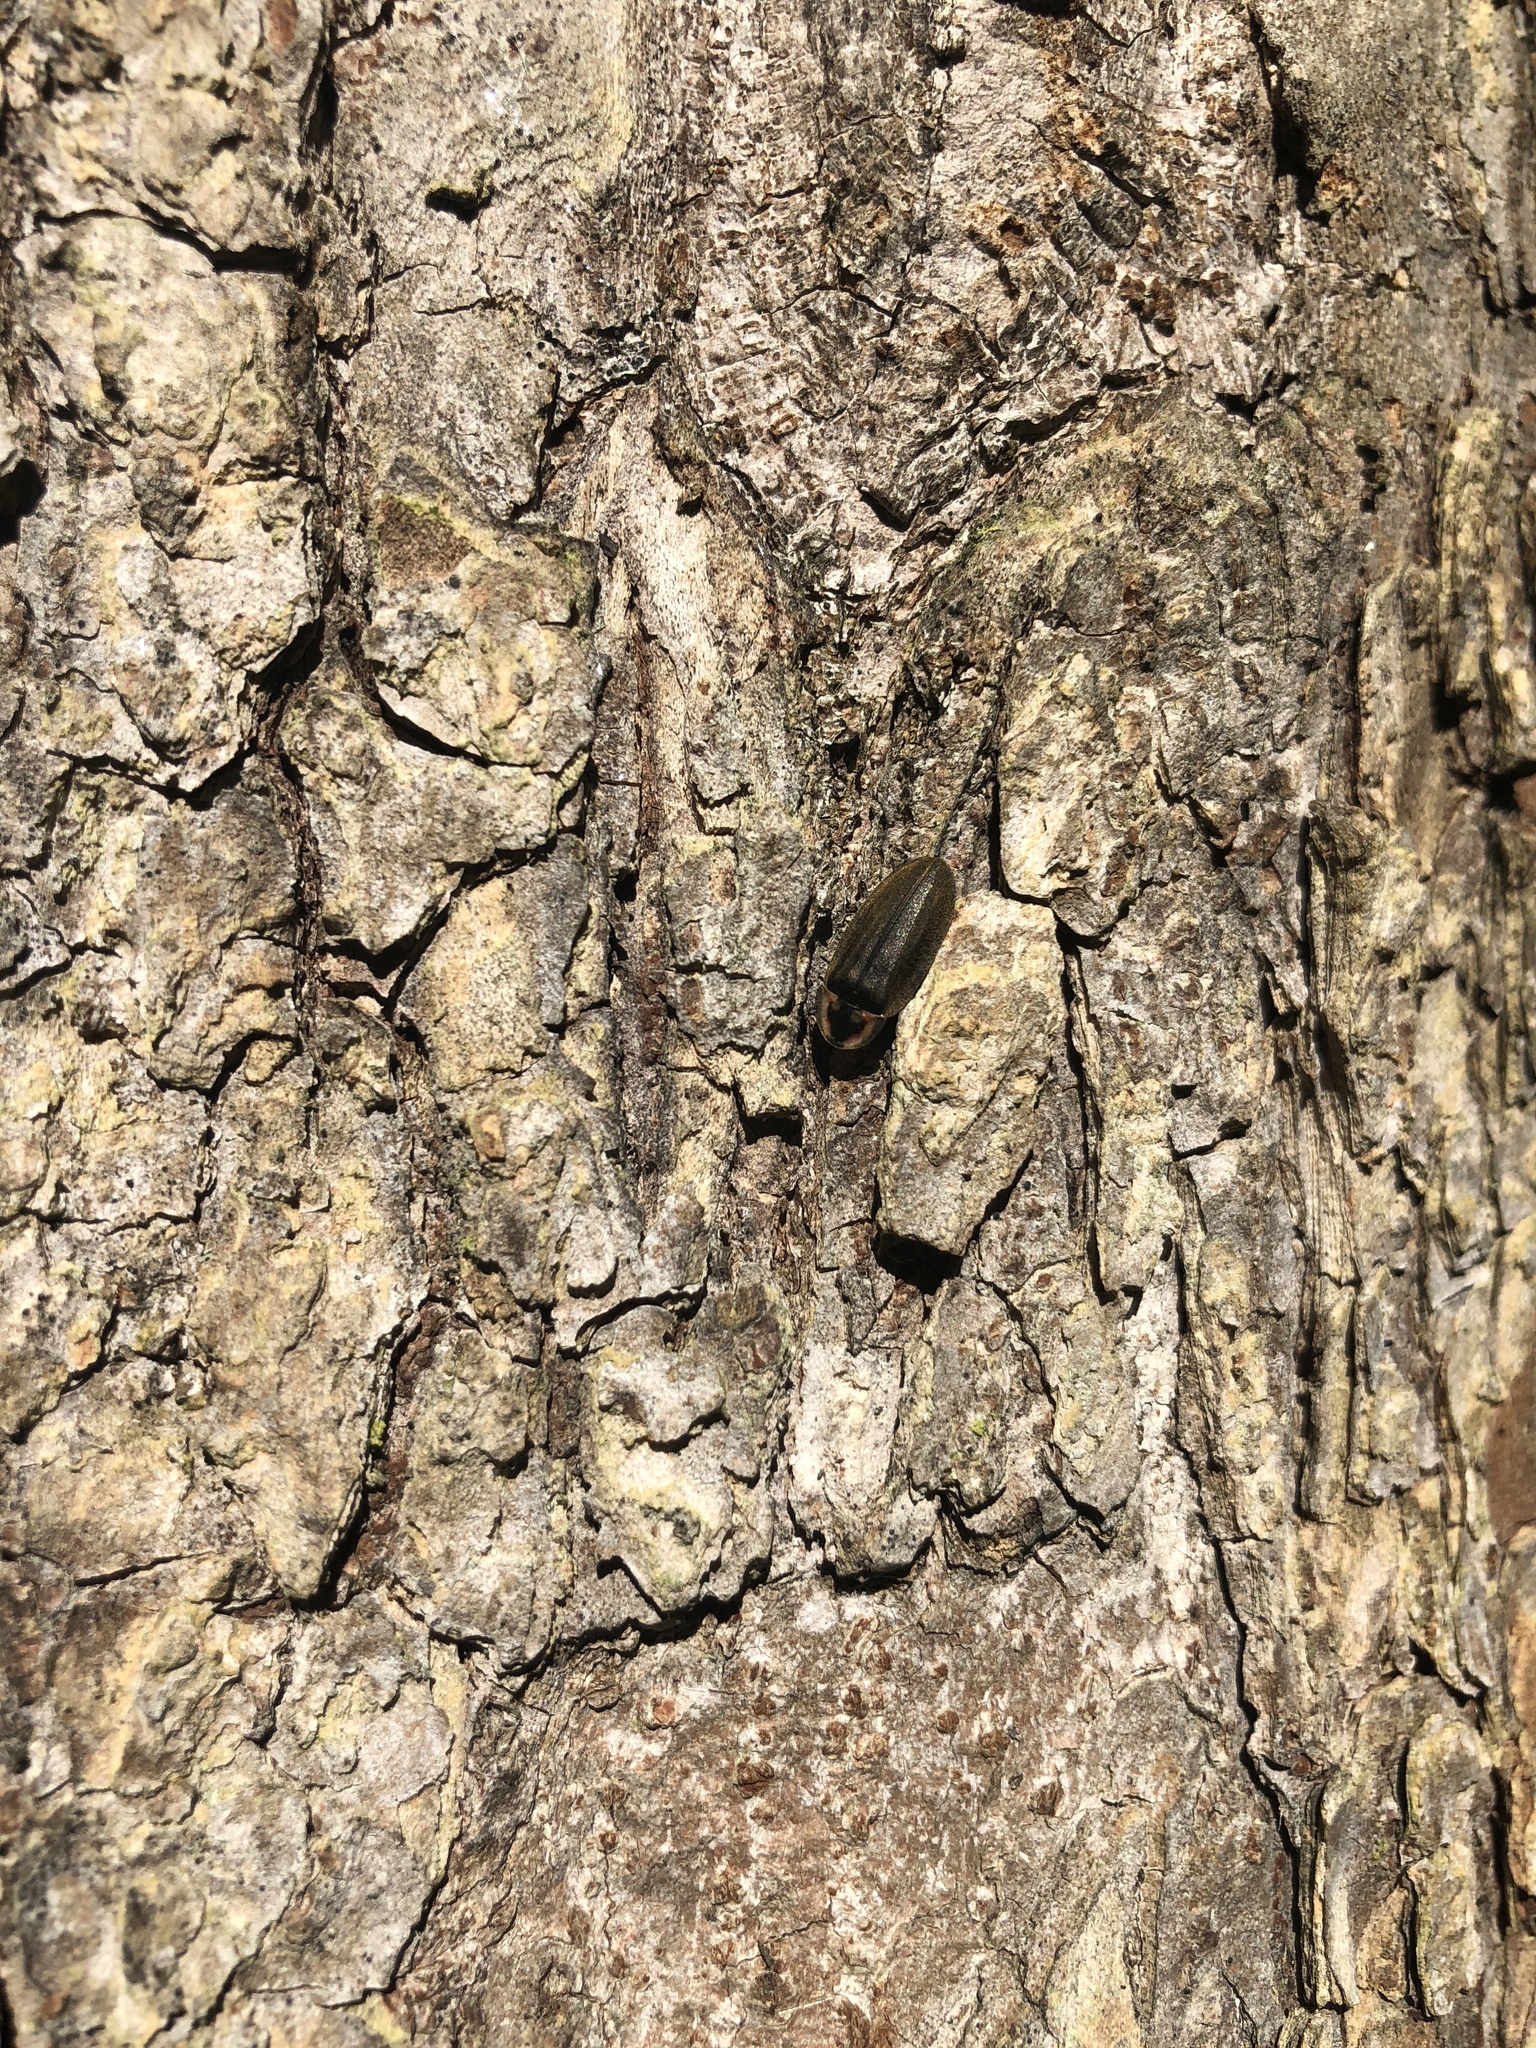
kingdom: Animalia
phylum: Arthropoda
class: Insecta
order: Coleoptera
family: Lampyridae
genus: Photinus
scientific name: Photinus corrusca
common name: Winter firefly
